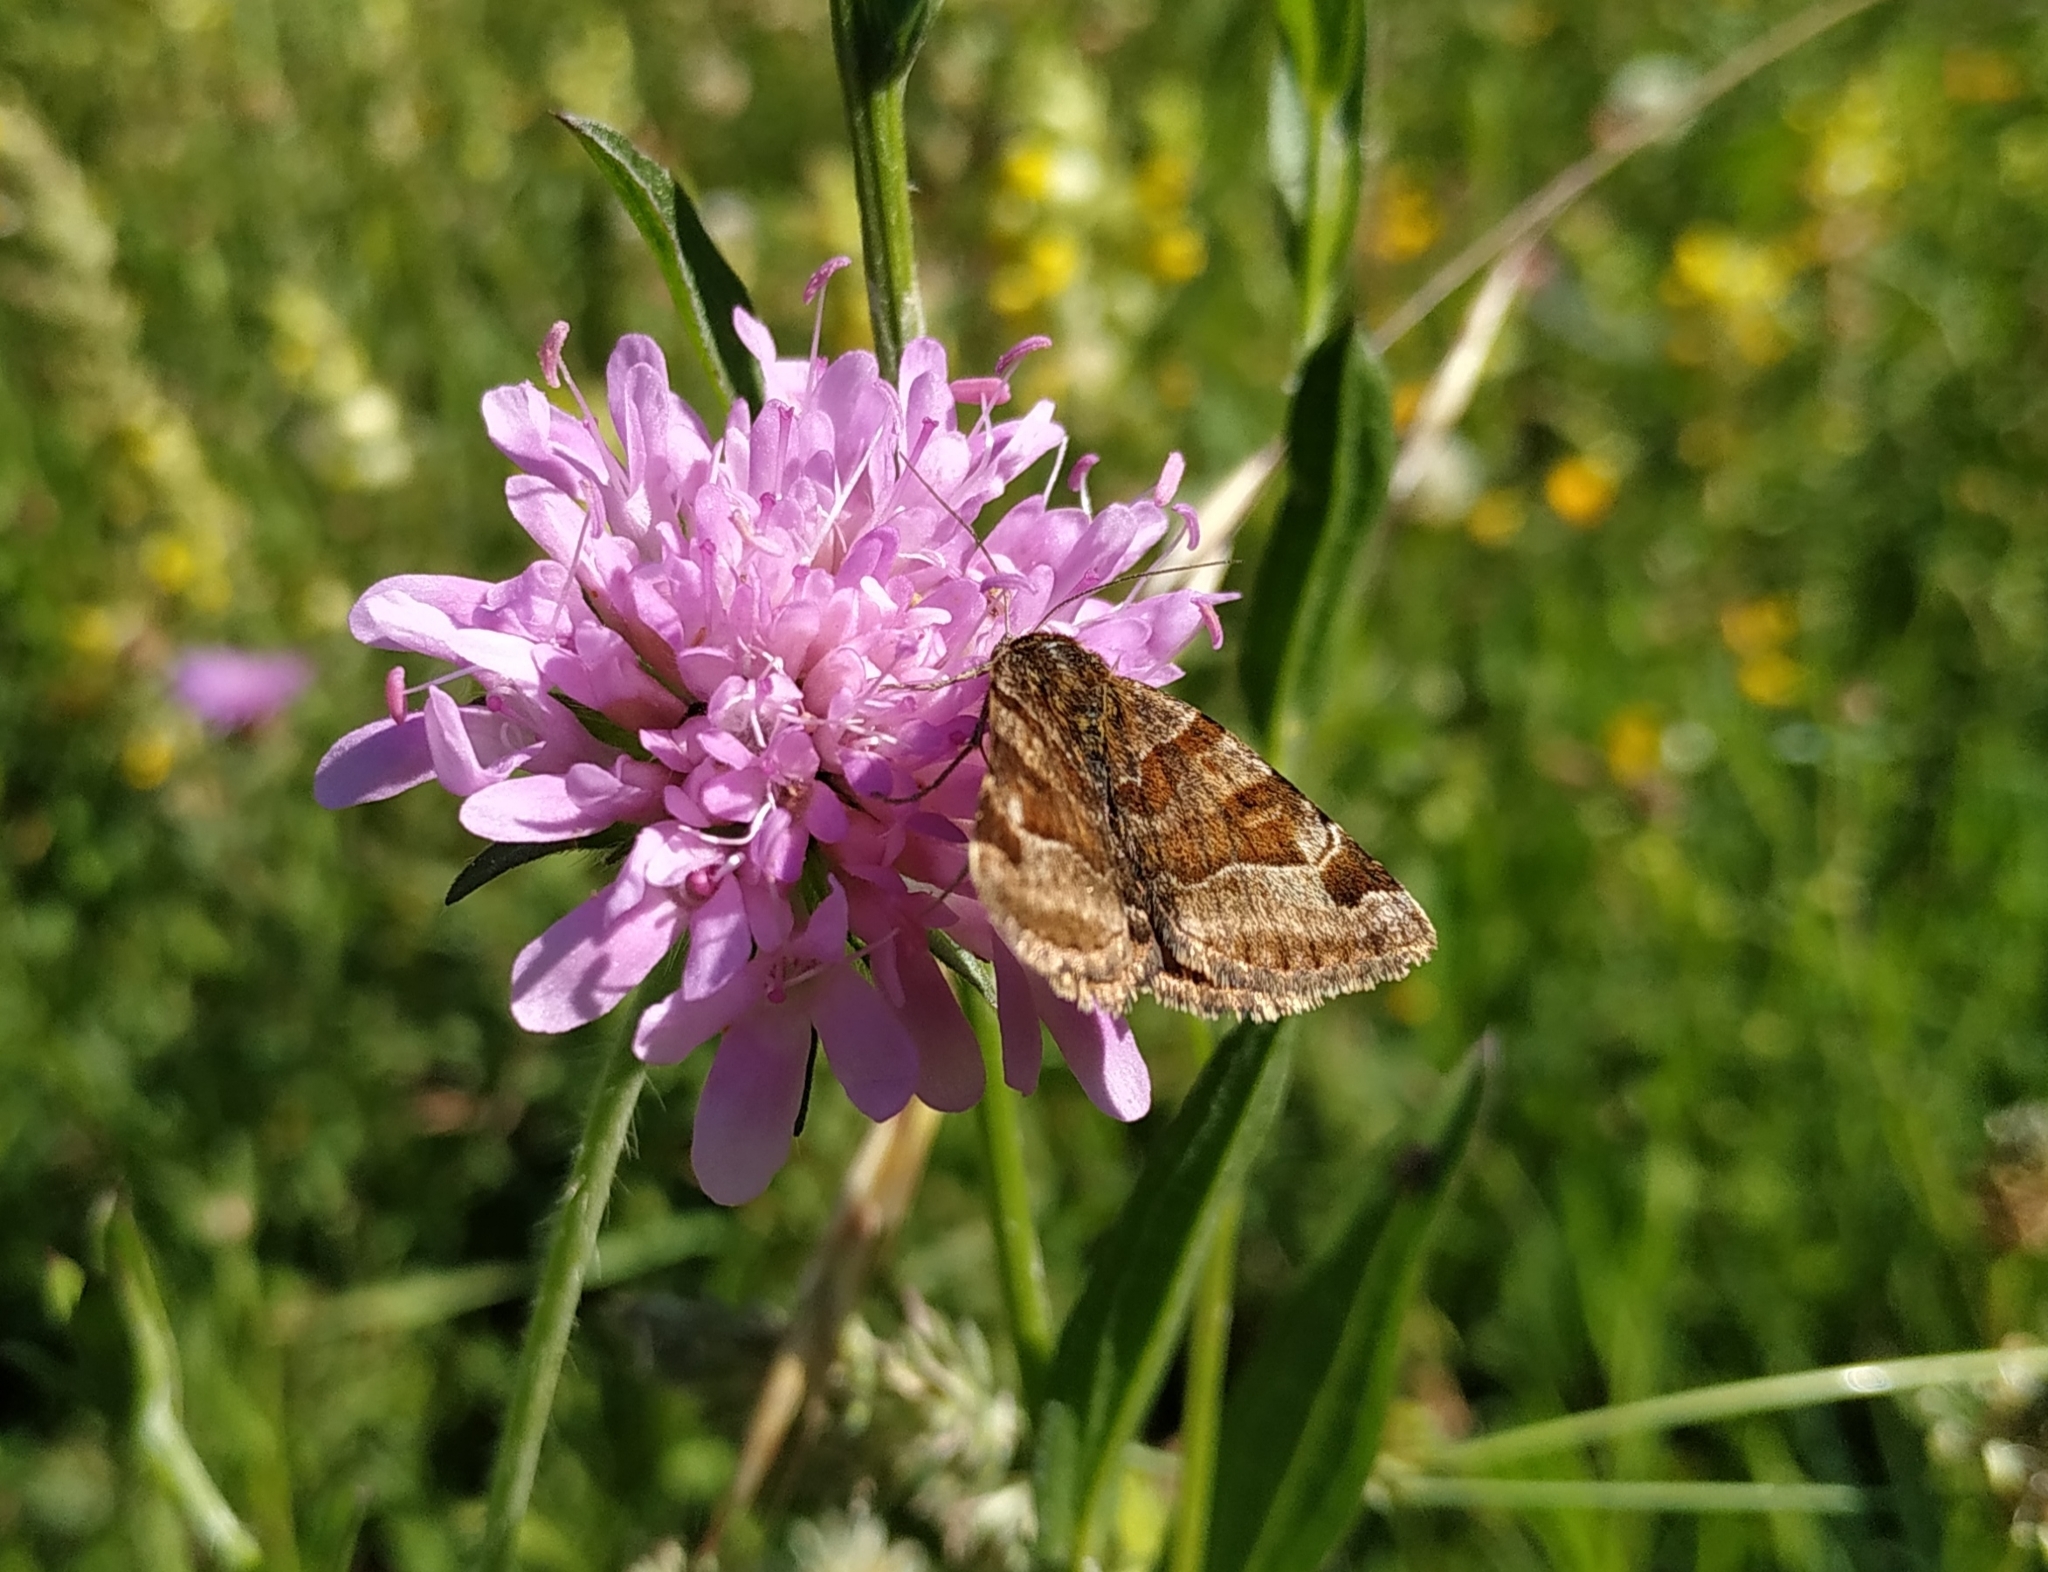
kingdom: Animalia
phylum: Arthropoda
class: Insecta
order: Lepidoptera
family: Erebidae
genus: Euclidia
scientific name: Euclidia glyphica
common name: Burnet companion
